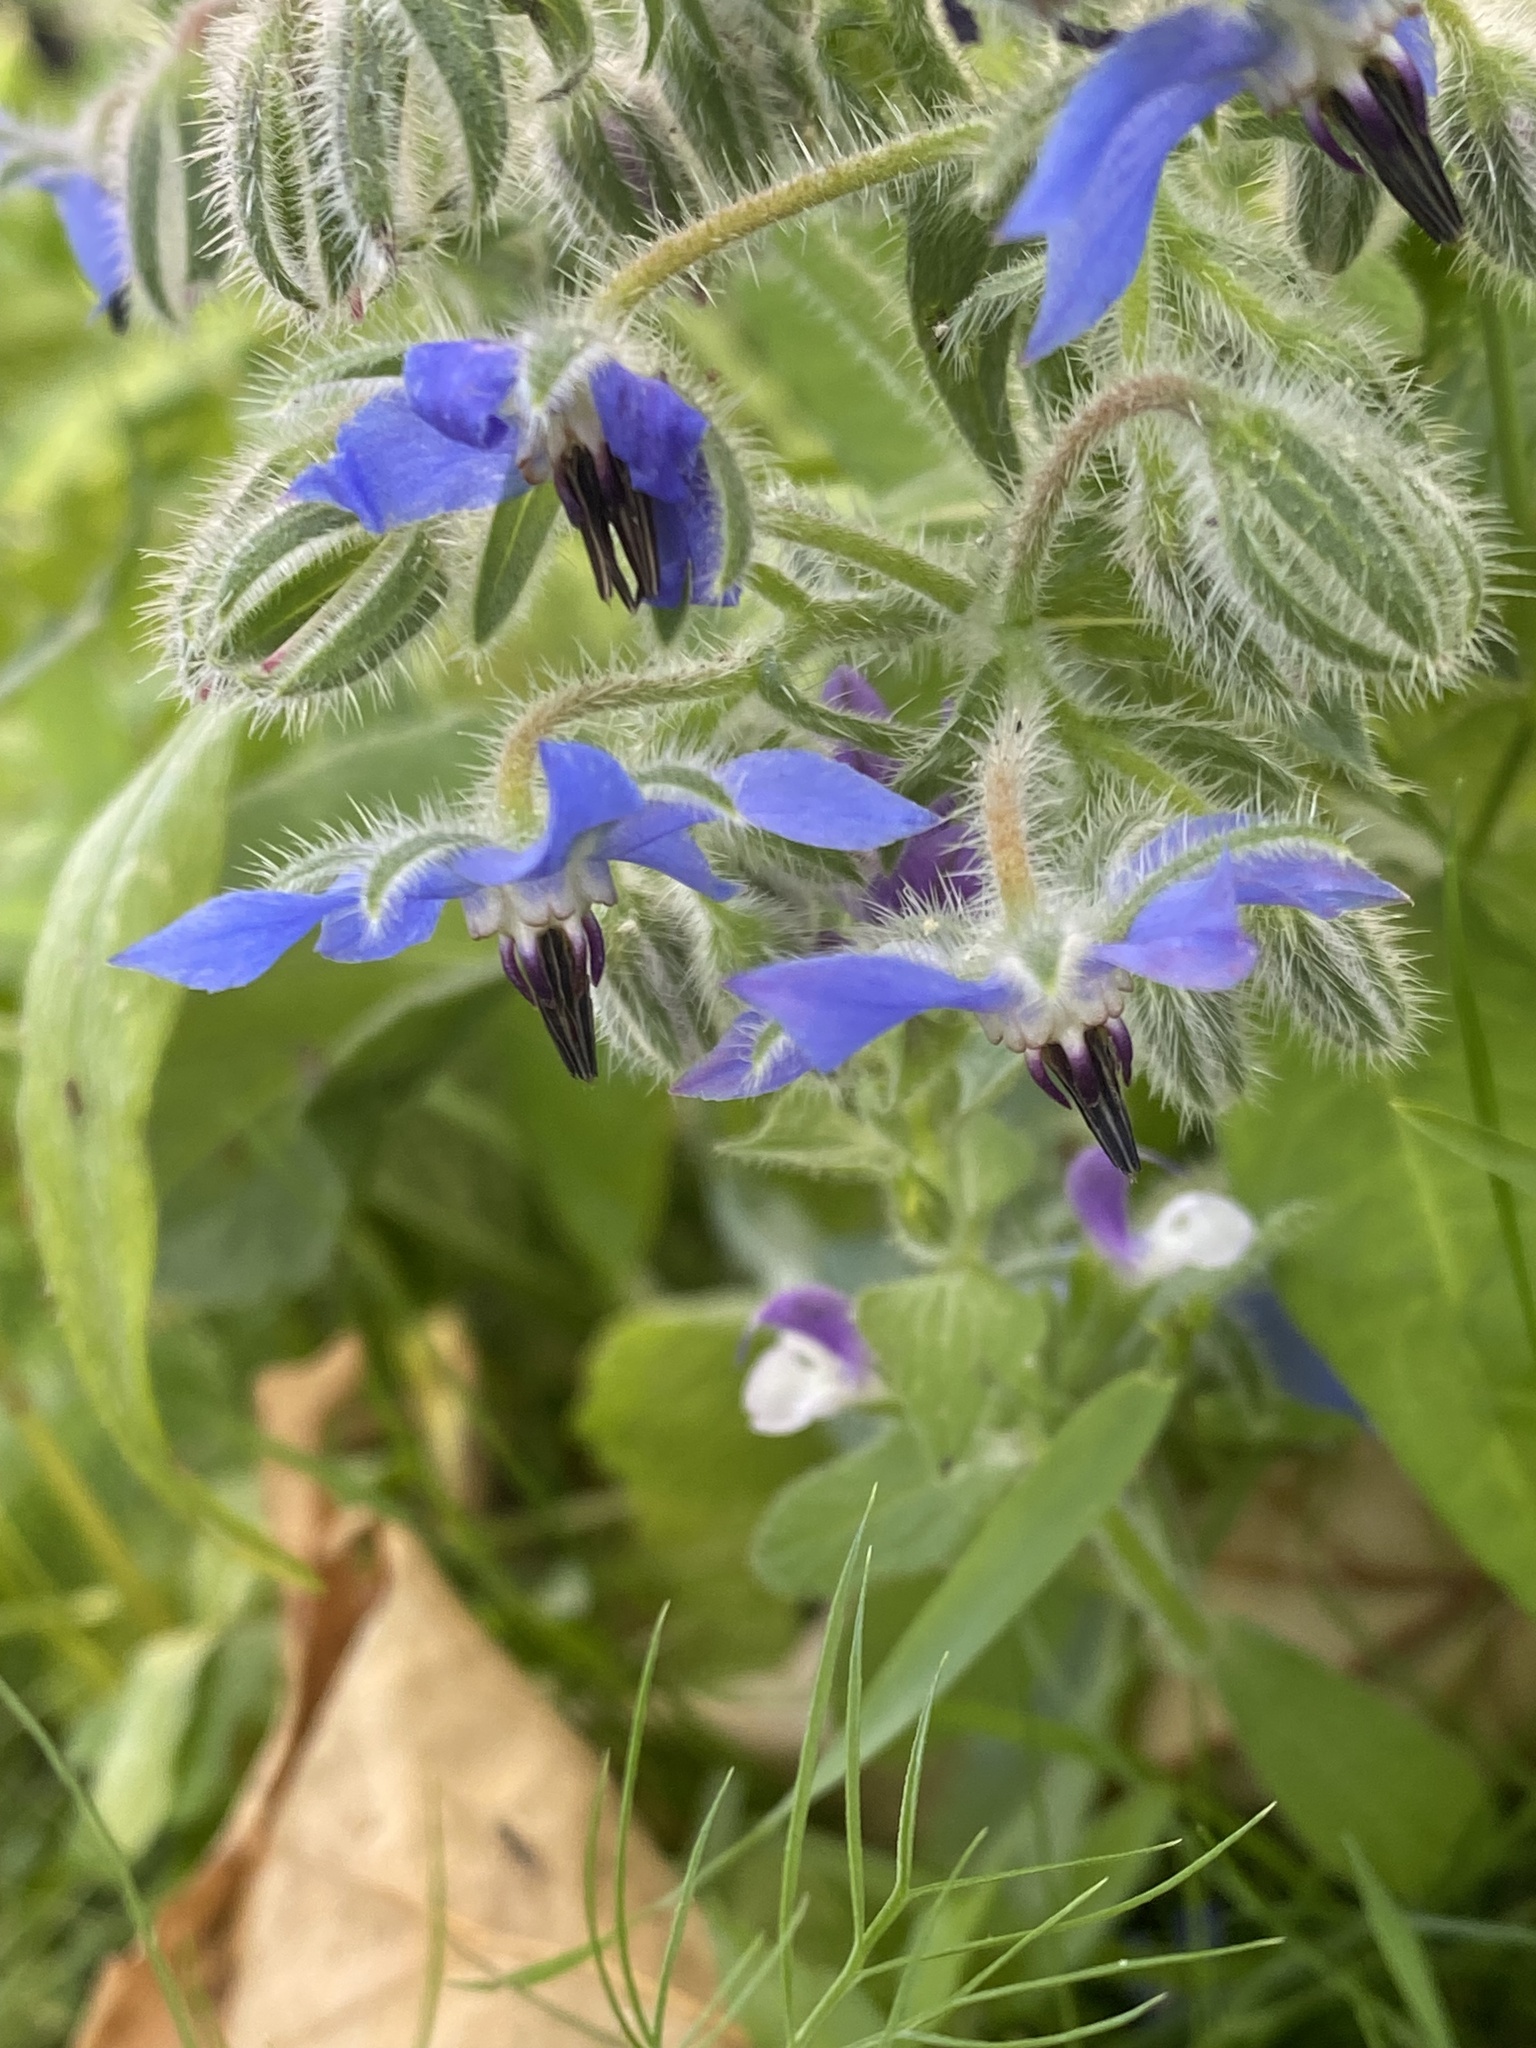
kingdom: Plantae
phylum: Tracheophyta
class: Magnoliopsida
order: Boraginales
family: Boraginaceae
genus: Borago
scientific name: Borago officinalis
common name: Borage
